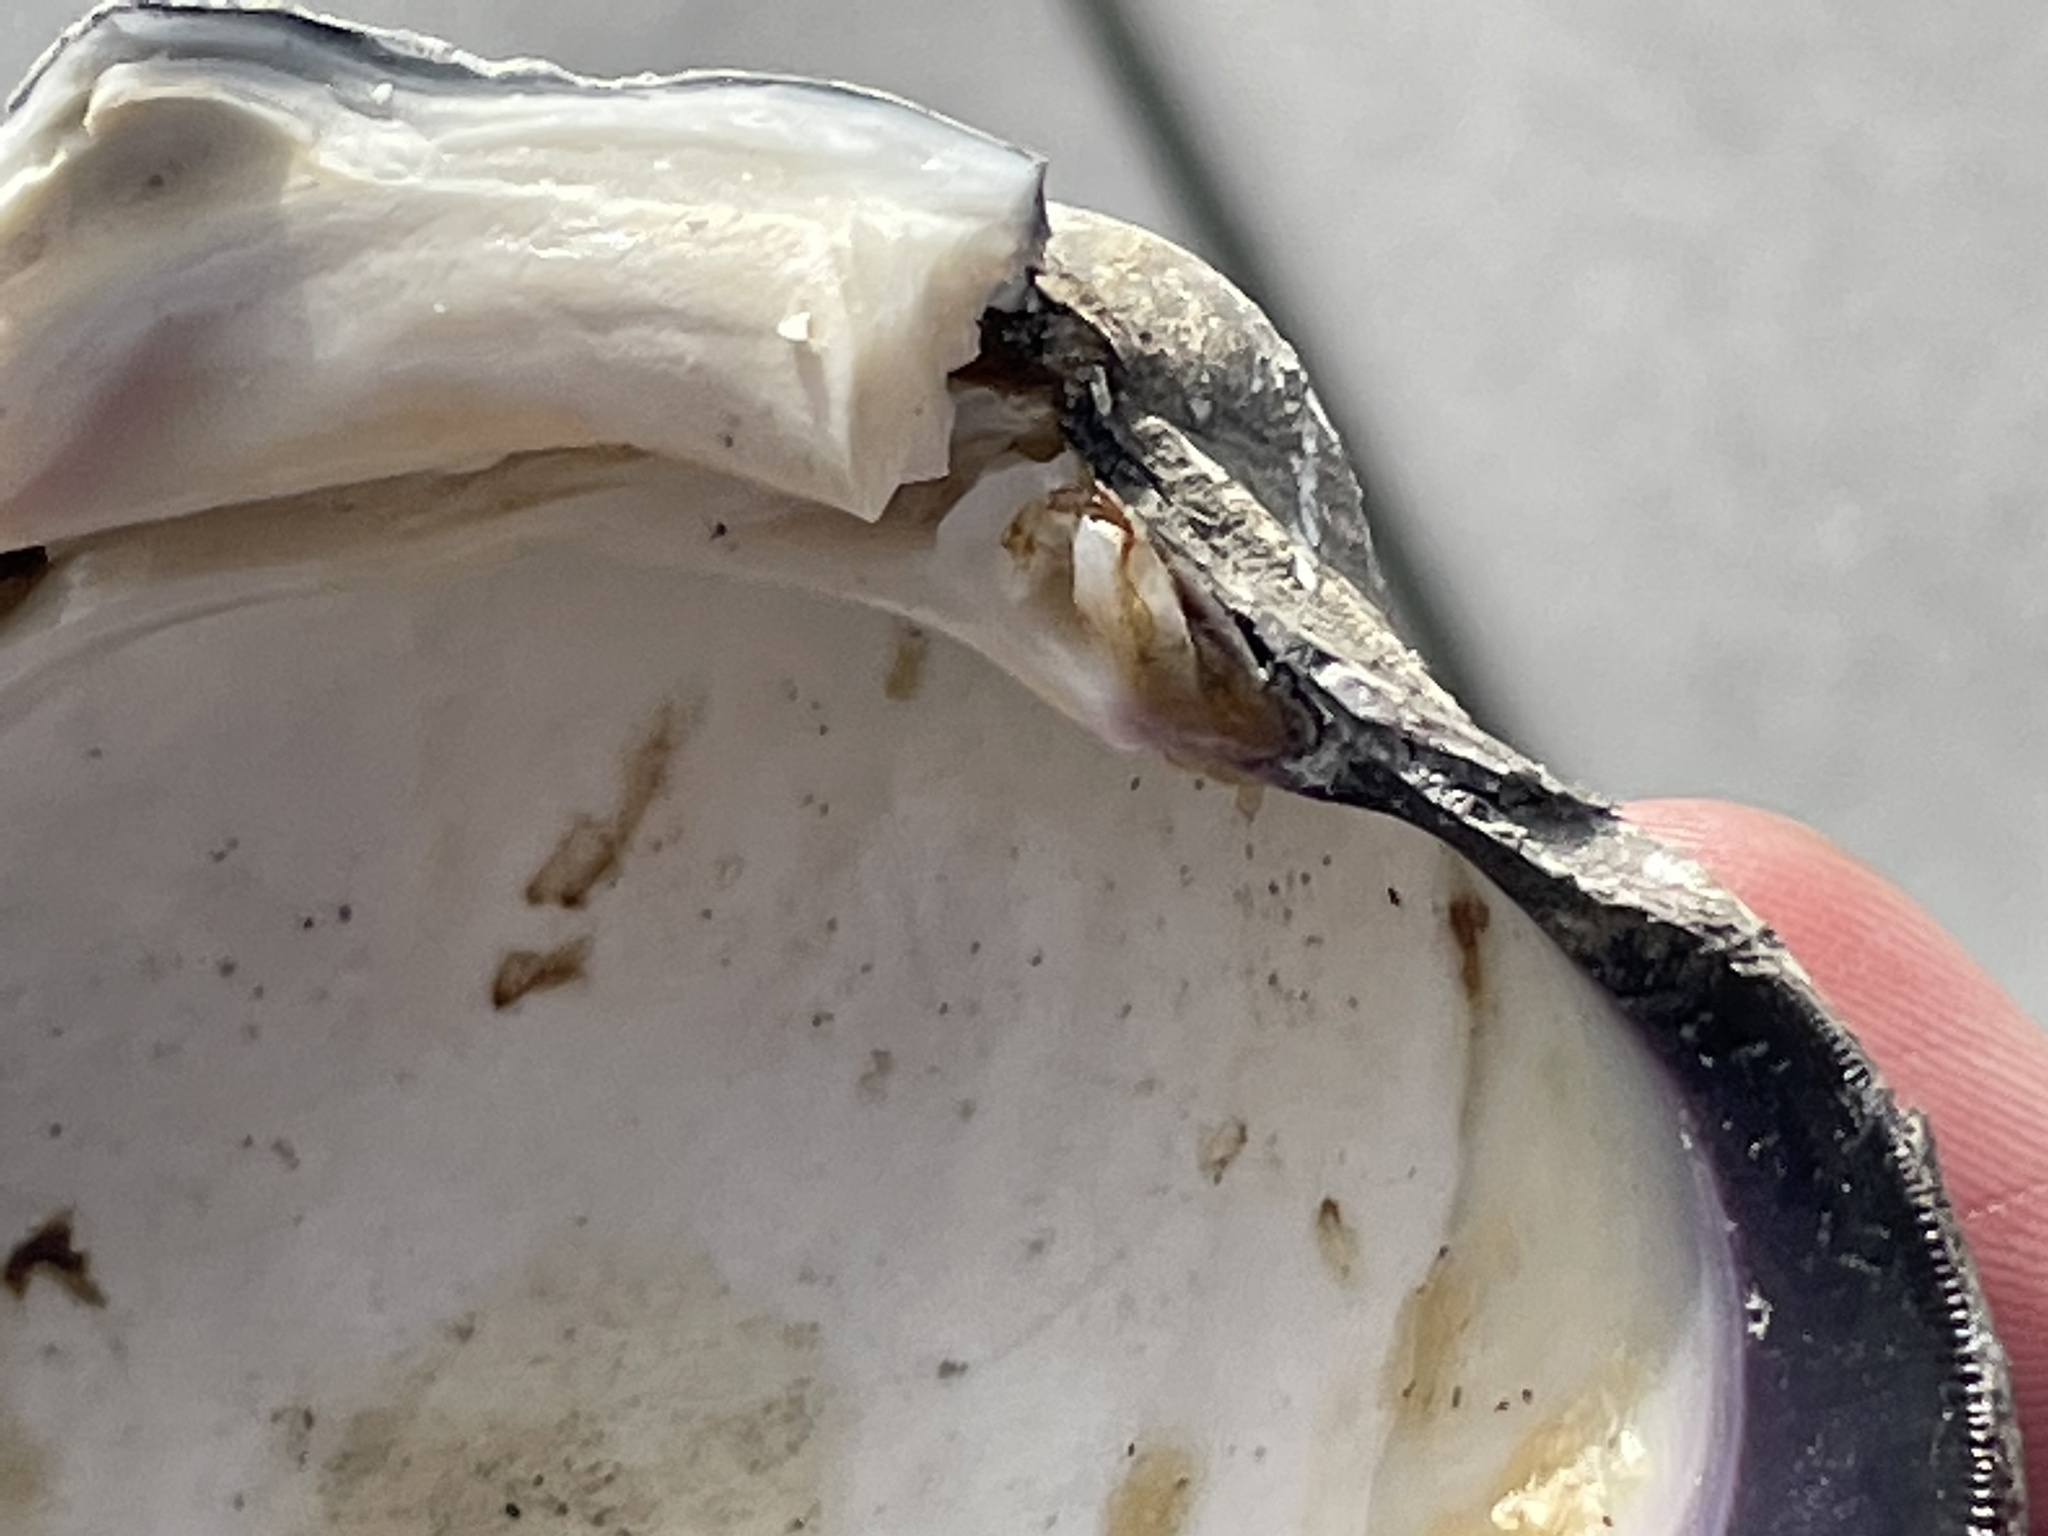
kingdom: Animalia
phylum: Mollusca
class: Bivalvia
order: Venerida
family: Veneridae
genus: Mercenaria
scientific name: Mercenaria mercenaria
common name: American hard-shelled clam
